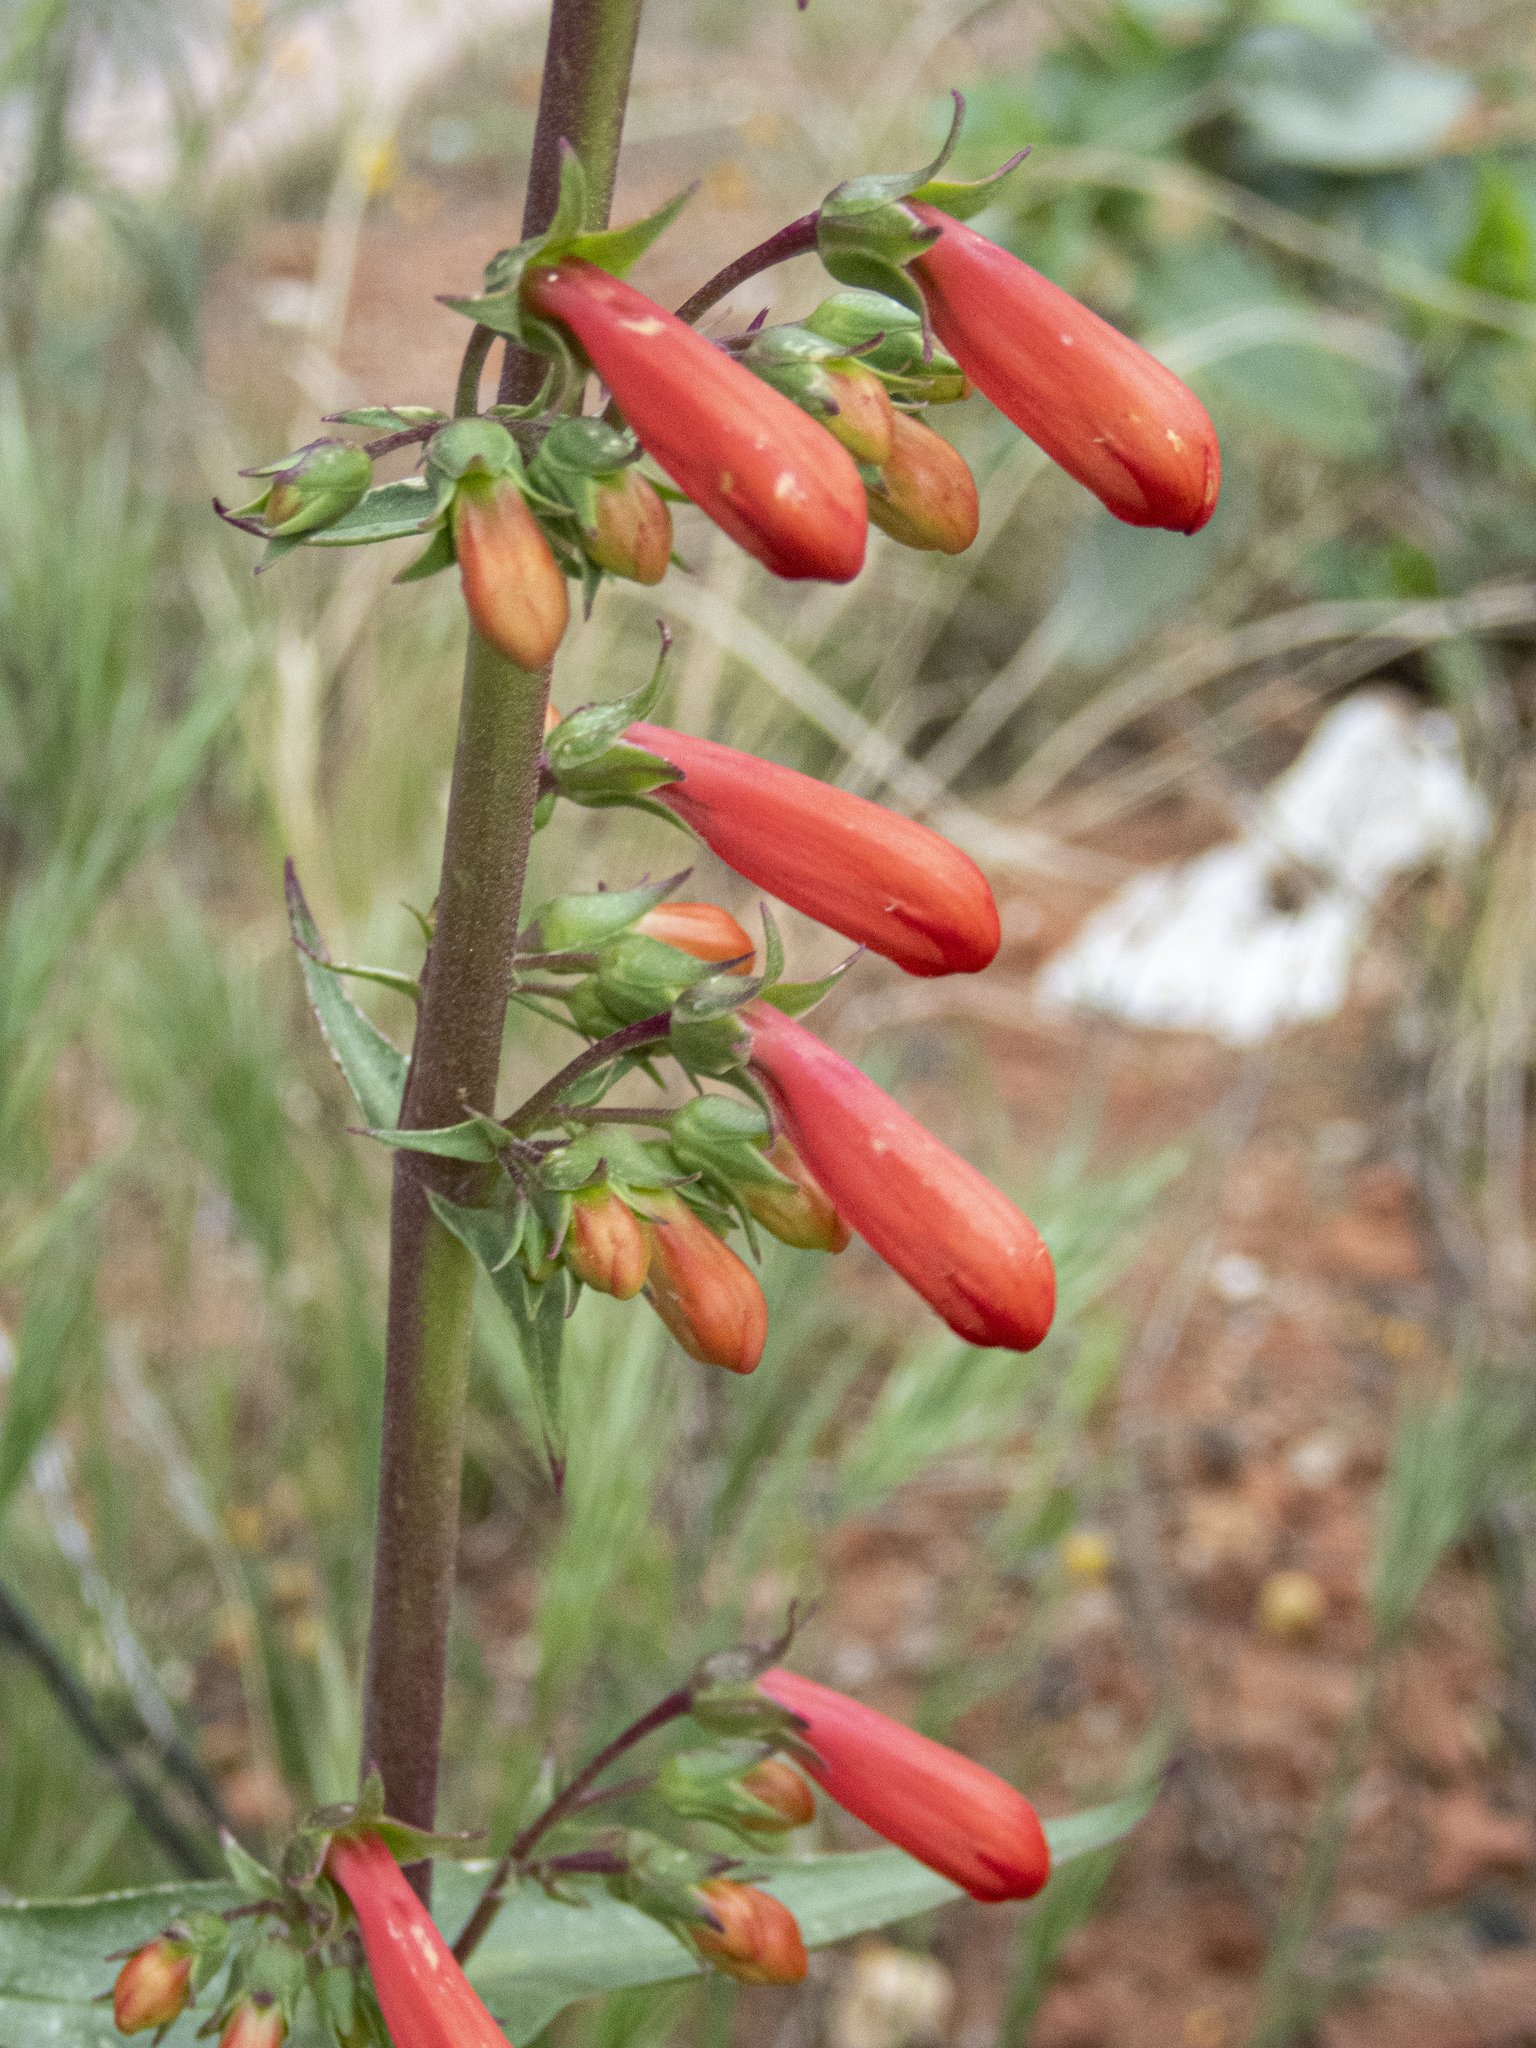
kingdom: Plantae
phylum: Tracheophyta
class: Magnoliopsida
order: Lamiales
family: Plantaginaceae
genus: Penstemon
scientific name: Penstemon eatonii
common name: Eaton's penstemon
